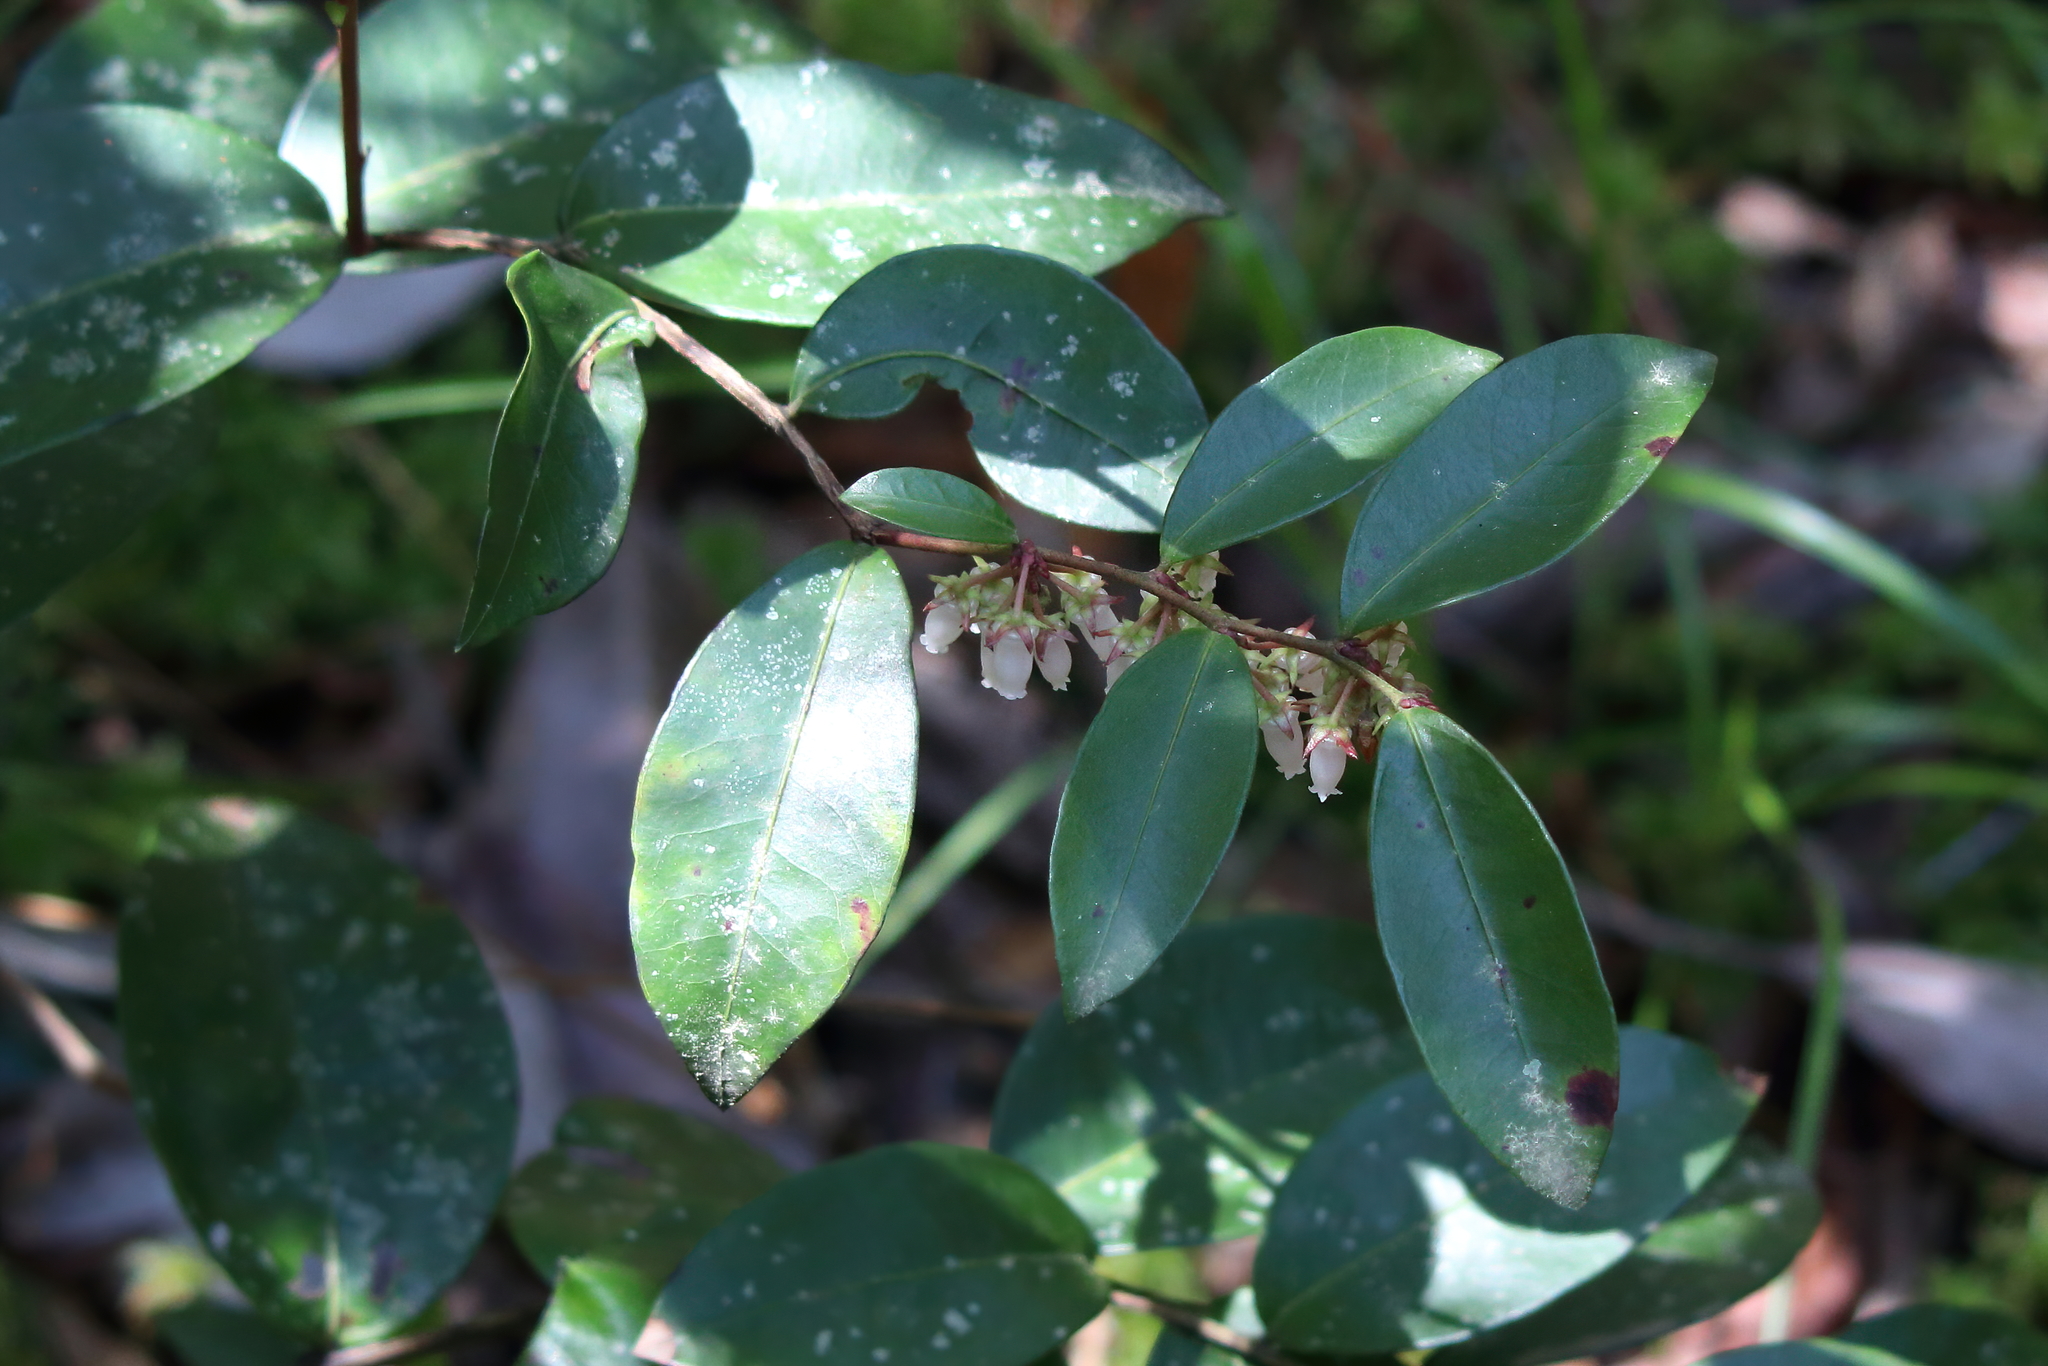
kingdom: Plantae
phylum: Tracheophyta
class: Magnoliopsida
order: Ericales
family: Ericaceae
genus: Lyonia
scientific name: Lyonia lucida
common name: Fetterbush
